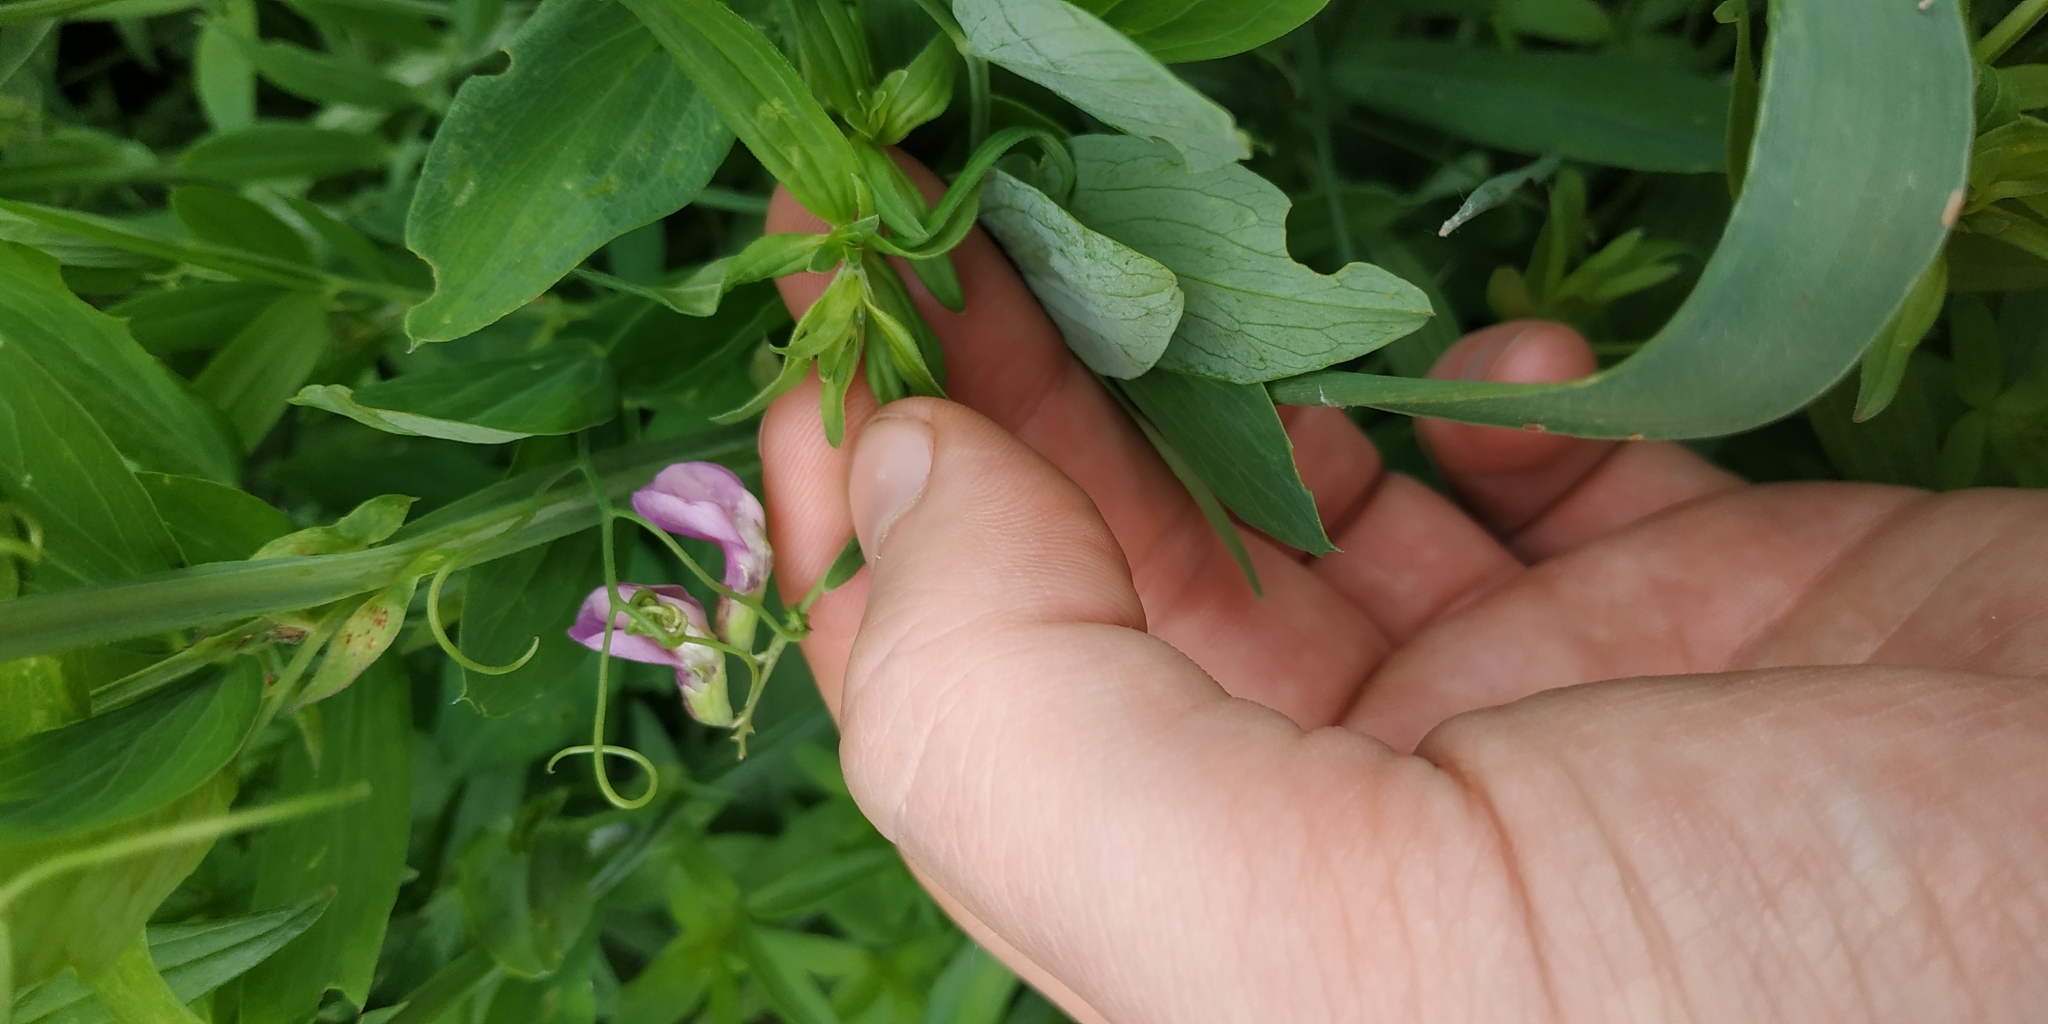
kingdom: Plantae
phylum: Tracheophyta
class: Magnoliopsida
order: Fabales
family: Fabaceae
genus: Lathyrus
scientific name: Lathyrus palustris
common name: Marsh pea
